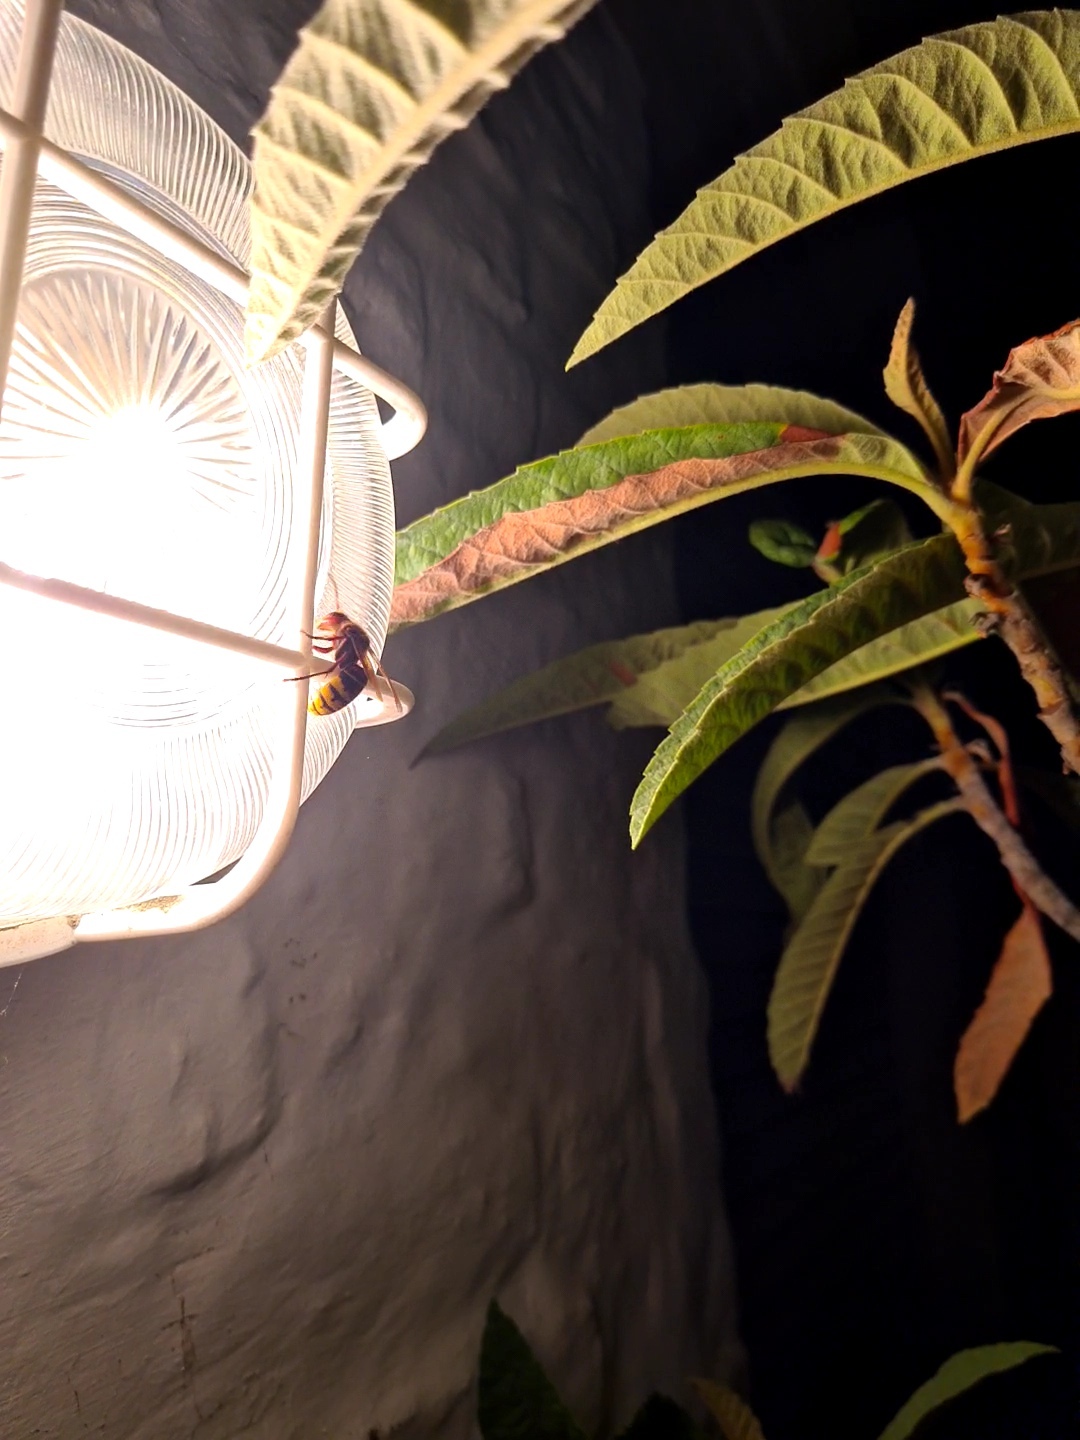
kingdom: Animalia
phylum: Arthropoda
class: Insecta
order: Hymenoptera
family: Vespidae
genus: Vespa
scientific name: Vespa crabro
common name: Hornet
